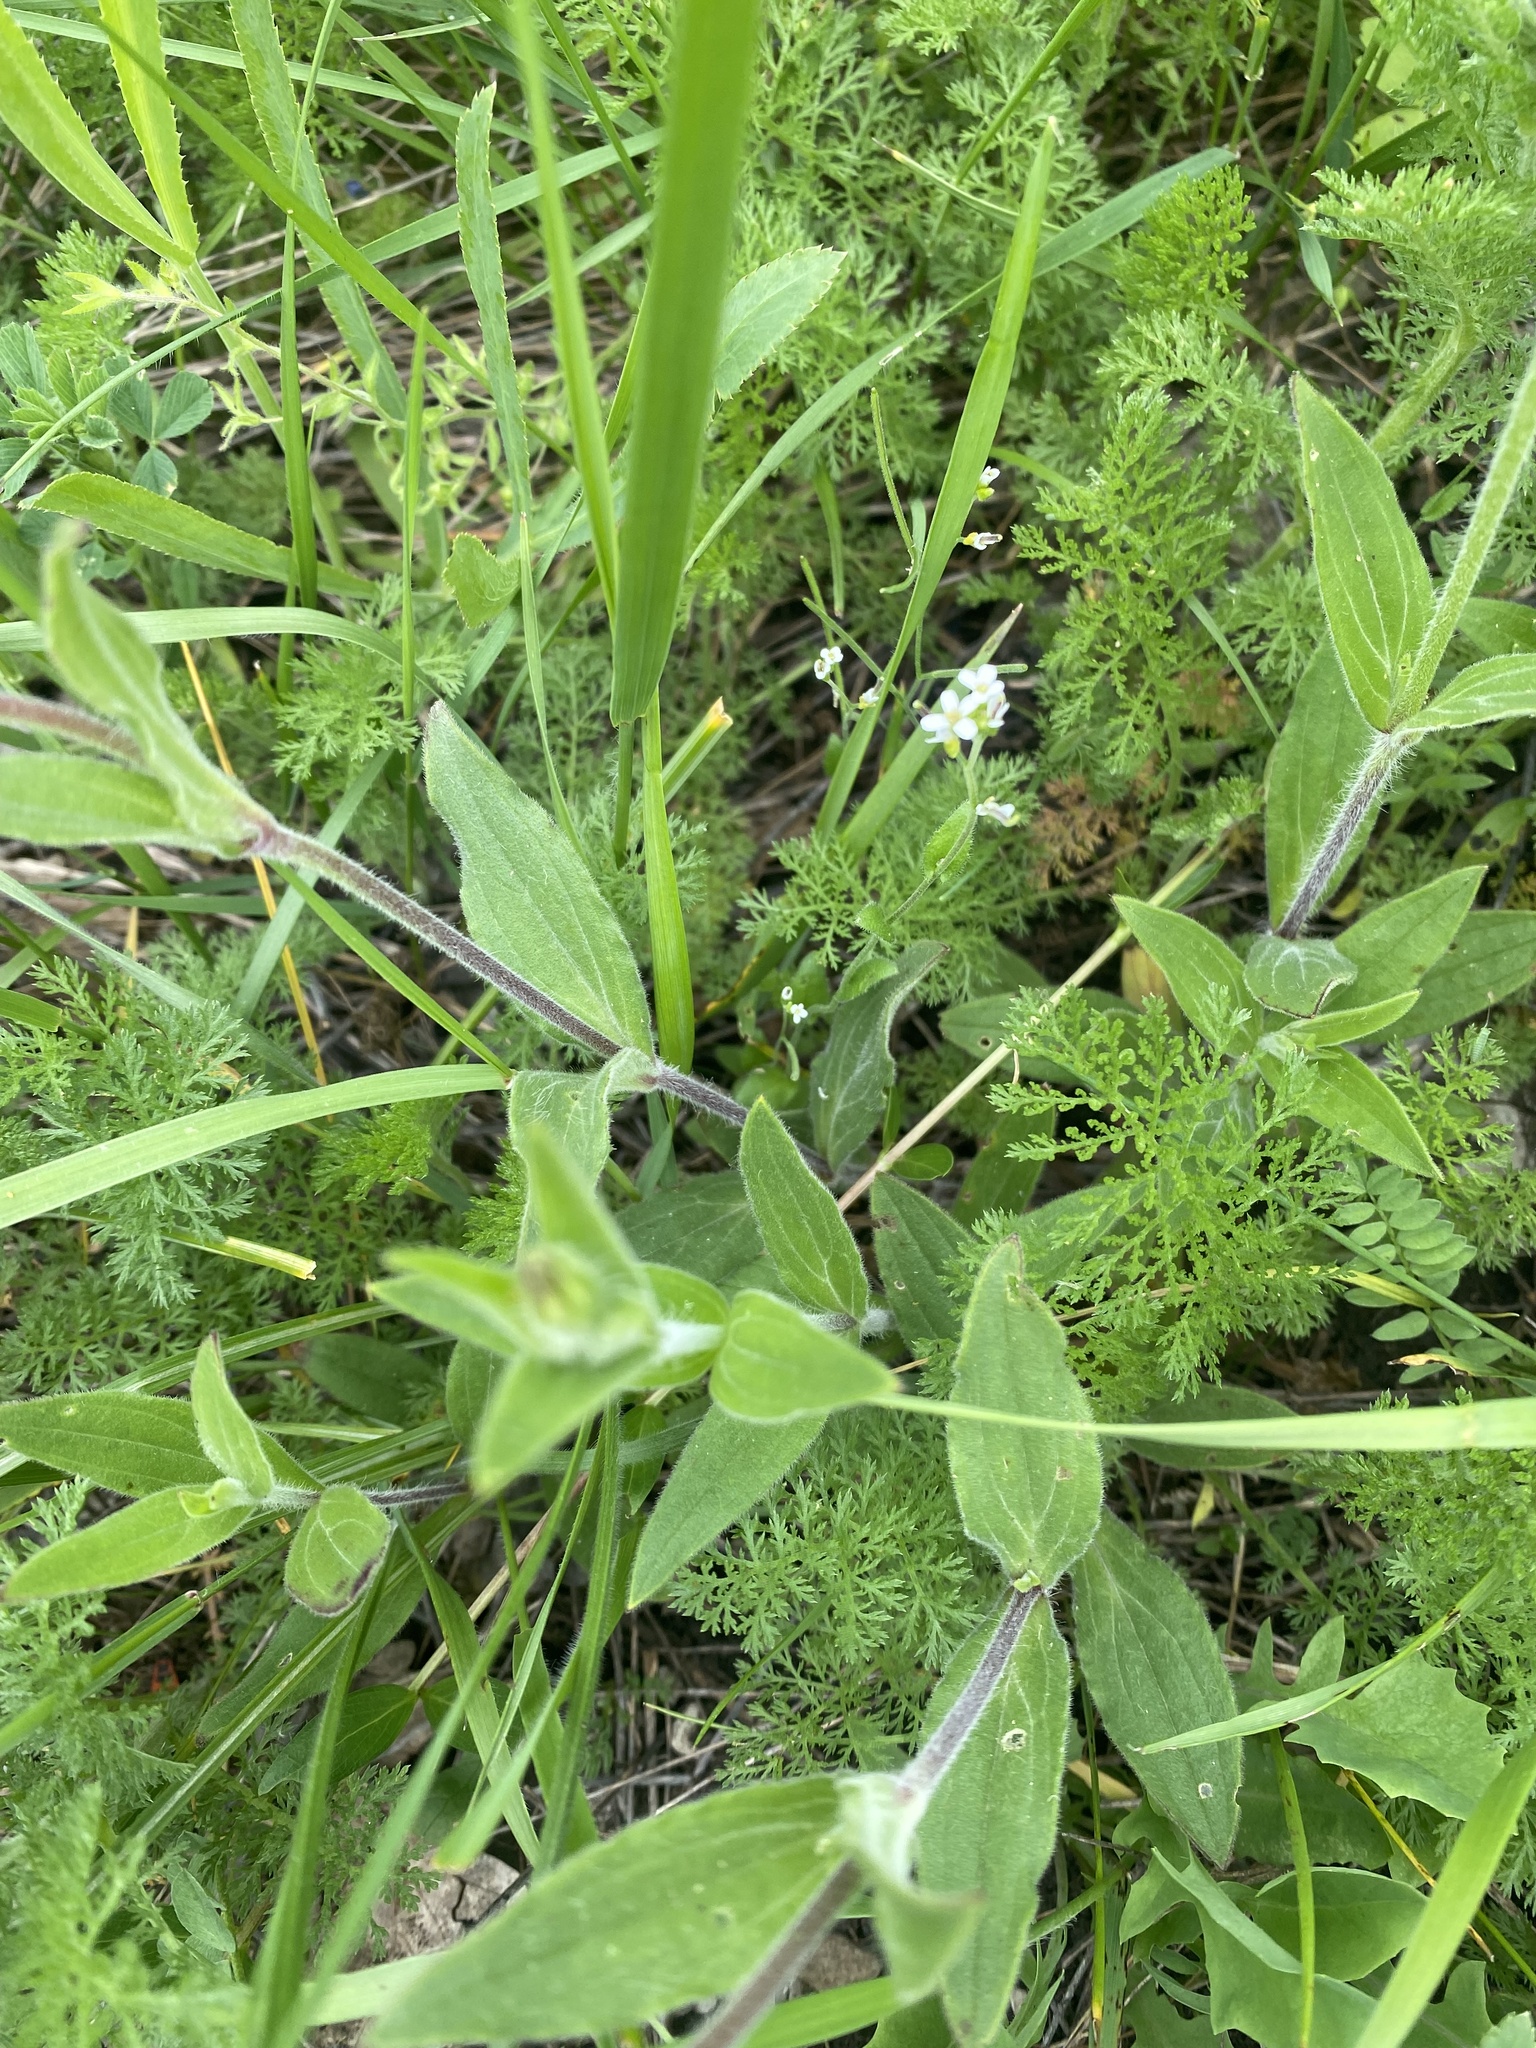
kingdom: Plantae
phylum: Tracheophyta
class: Magnoliopsida
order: Caryophyllales
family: Caryophyllaceae
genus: Silene
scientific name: Silene latifolia
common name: White campion
